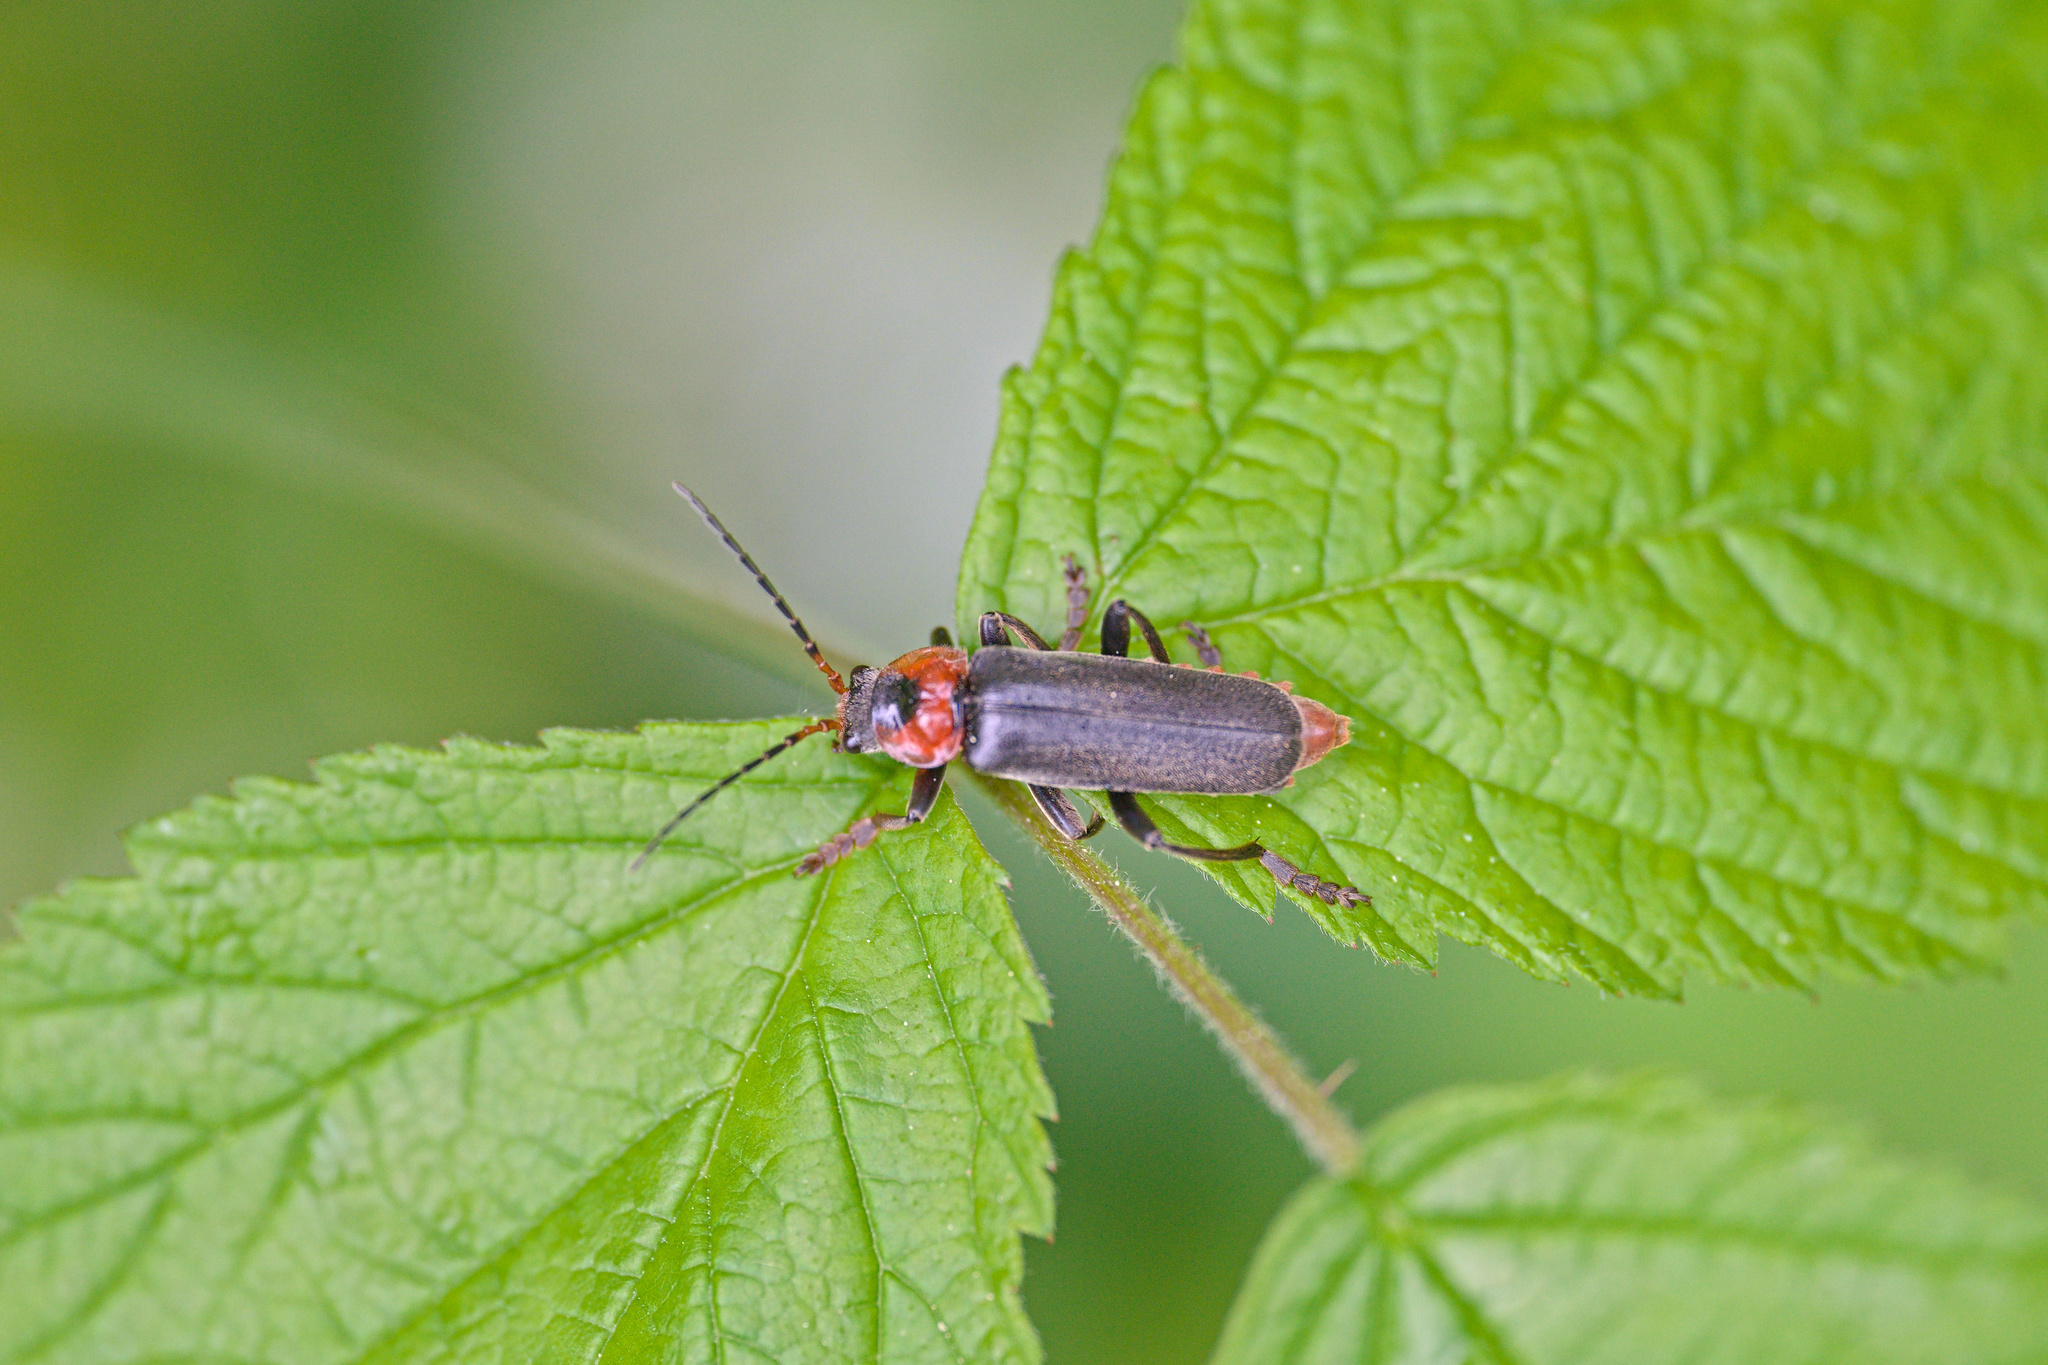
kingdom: Animalia
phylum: Arthropoda
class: Insecta
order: Coleoptera
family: Cantharidae
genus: Cantharis
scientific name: Cantharis fusca
